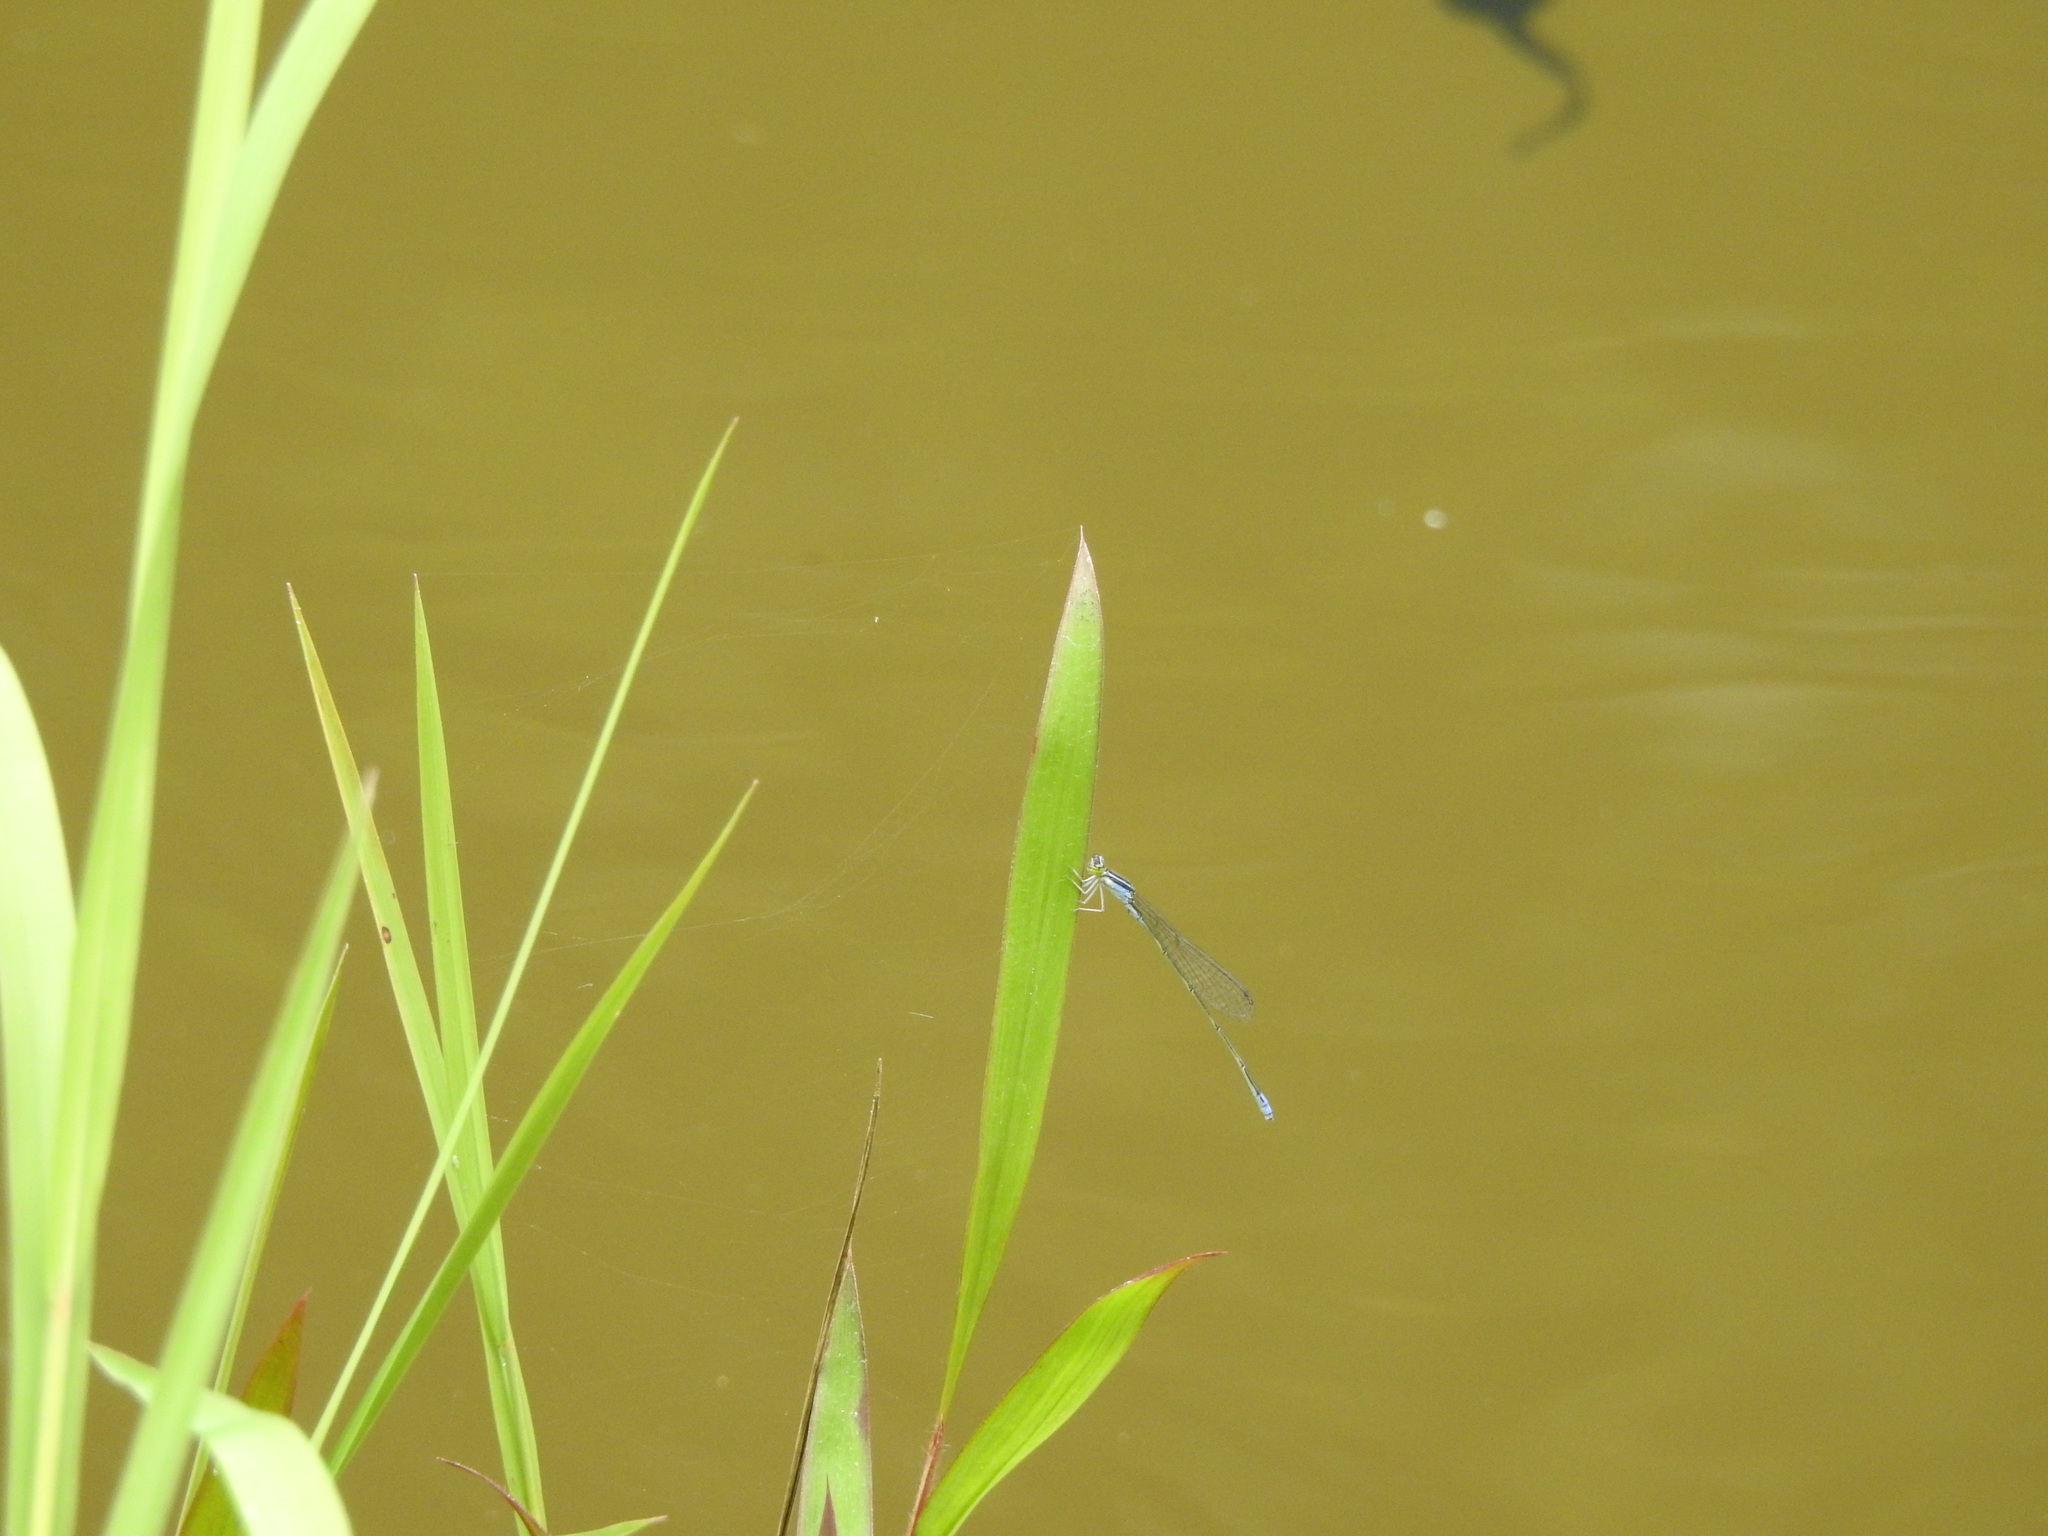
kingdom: Animalia
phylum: Arthropoda
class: Insecta
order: Odonata
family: Coenagrionidae
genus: Aciagrion
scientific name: Aciagrion approximans
